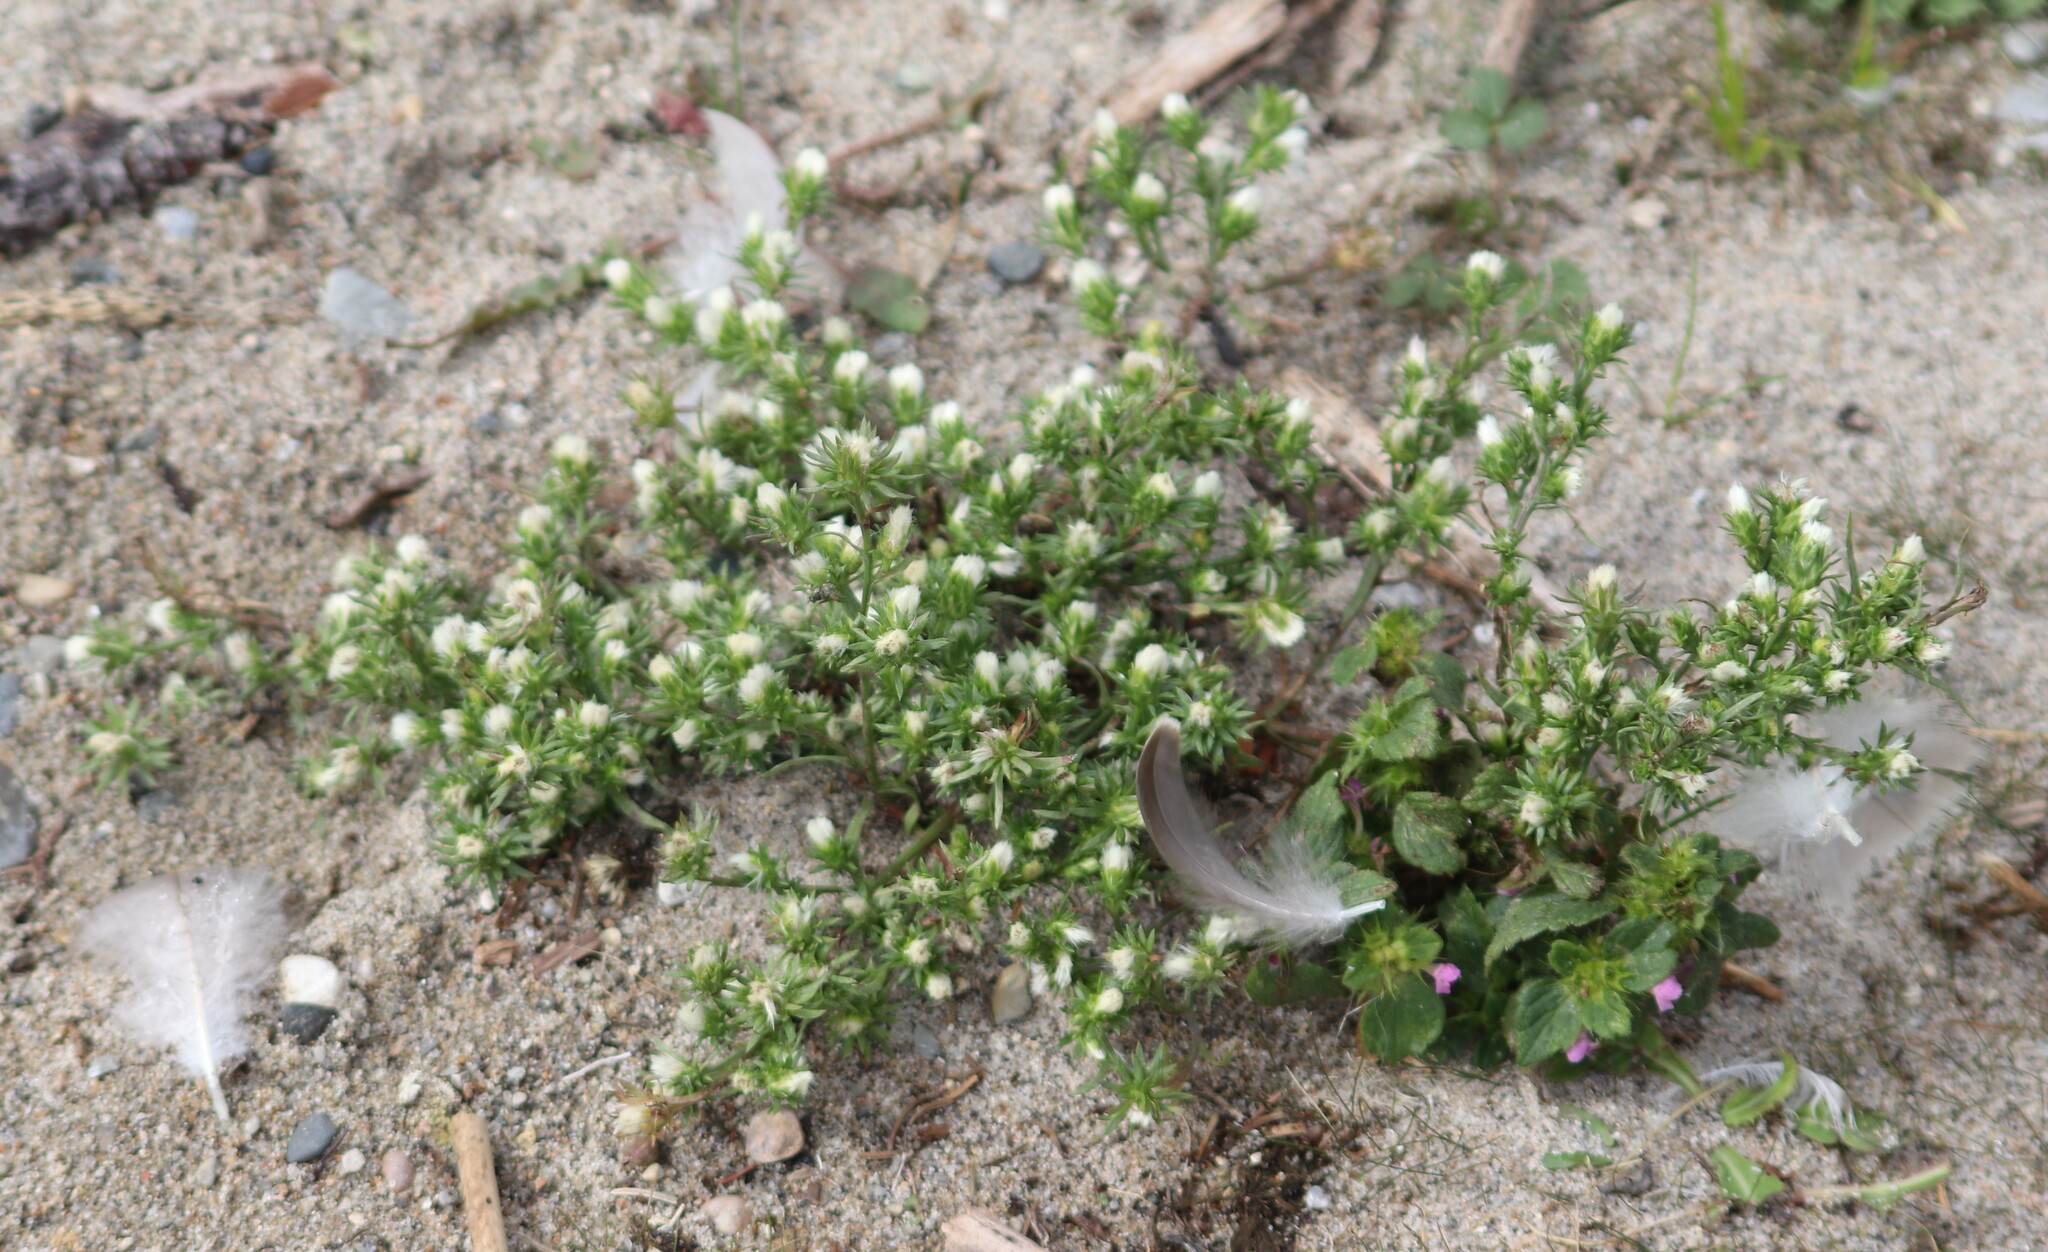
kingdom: Plantae
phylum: Tracheophyta
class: Magnoliopsida
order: Asterales
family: Asteraceae
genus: Symphyotrichum
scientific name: Symphyotrichum ciliatum
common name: Rayless annual aster
